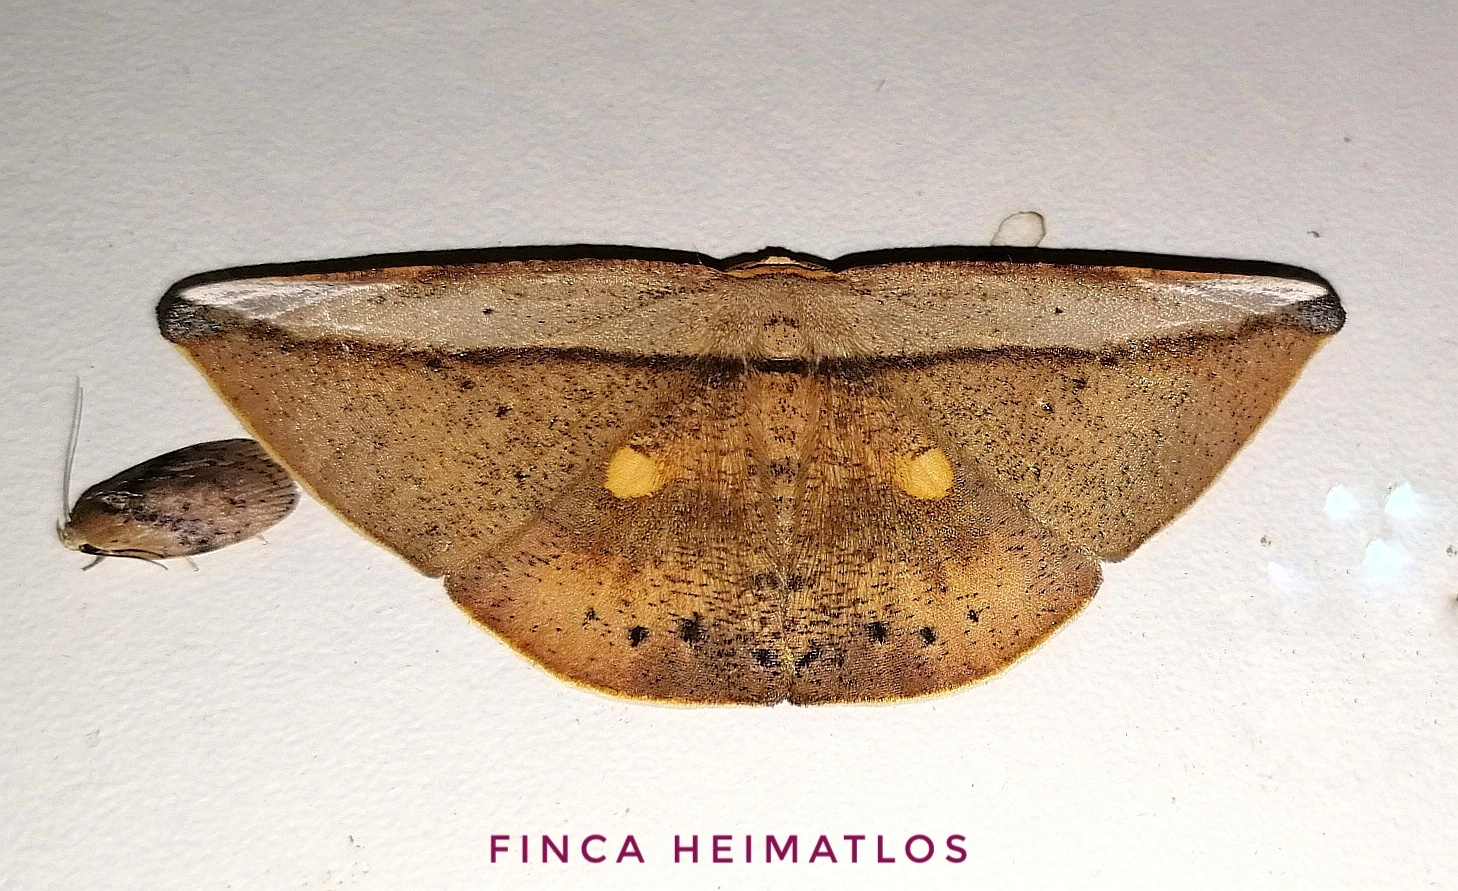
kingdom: Animalia
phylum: Arthropoda
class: Insecta
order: Lepidoptera
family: Geometridae
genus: Polla
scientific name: Polla varipes
